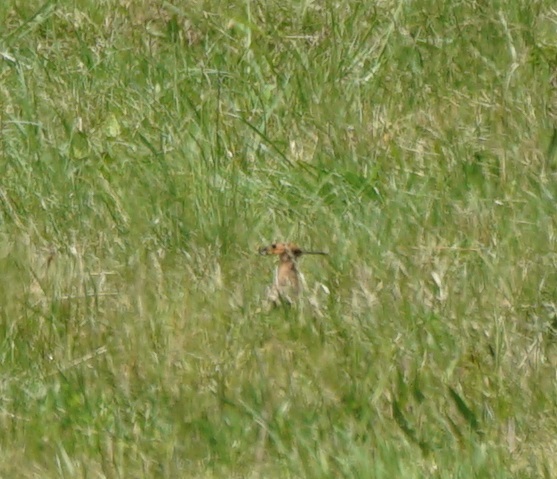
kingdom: Animalia
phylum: Chordata
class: Aves
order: Bucerotiformes
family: Upupidae
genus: Upupa
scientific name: Upupa epops
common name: Eurasian hoopoe
